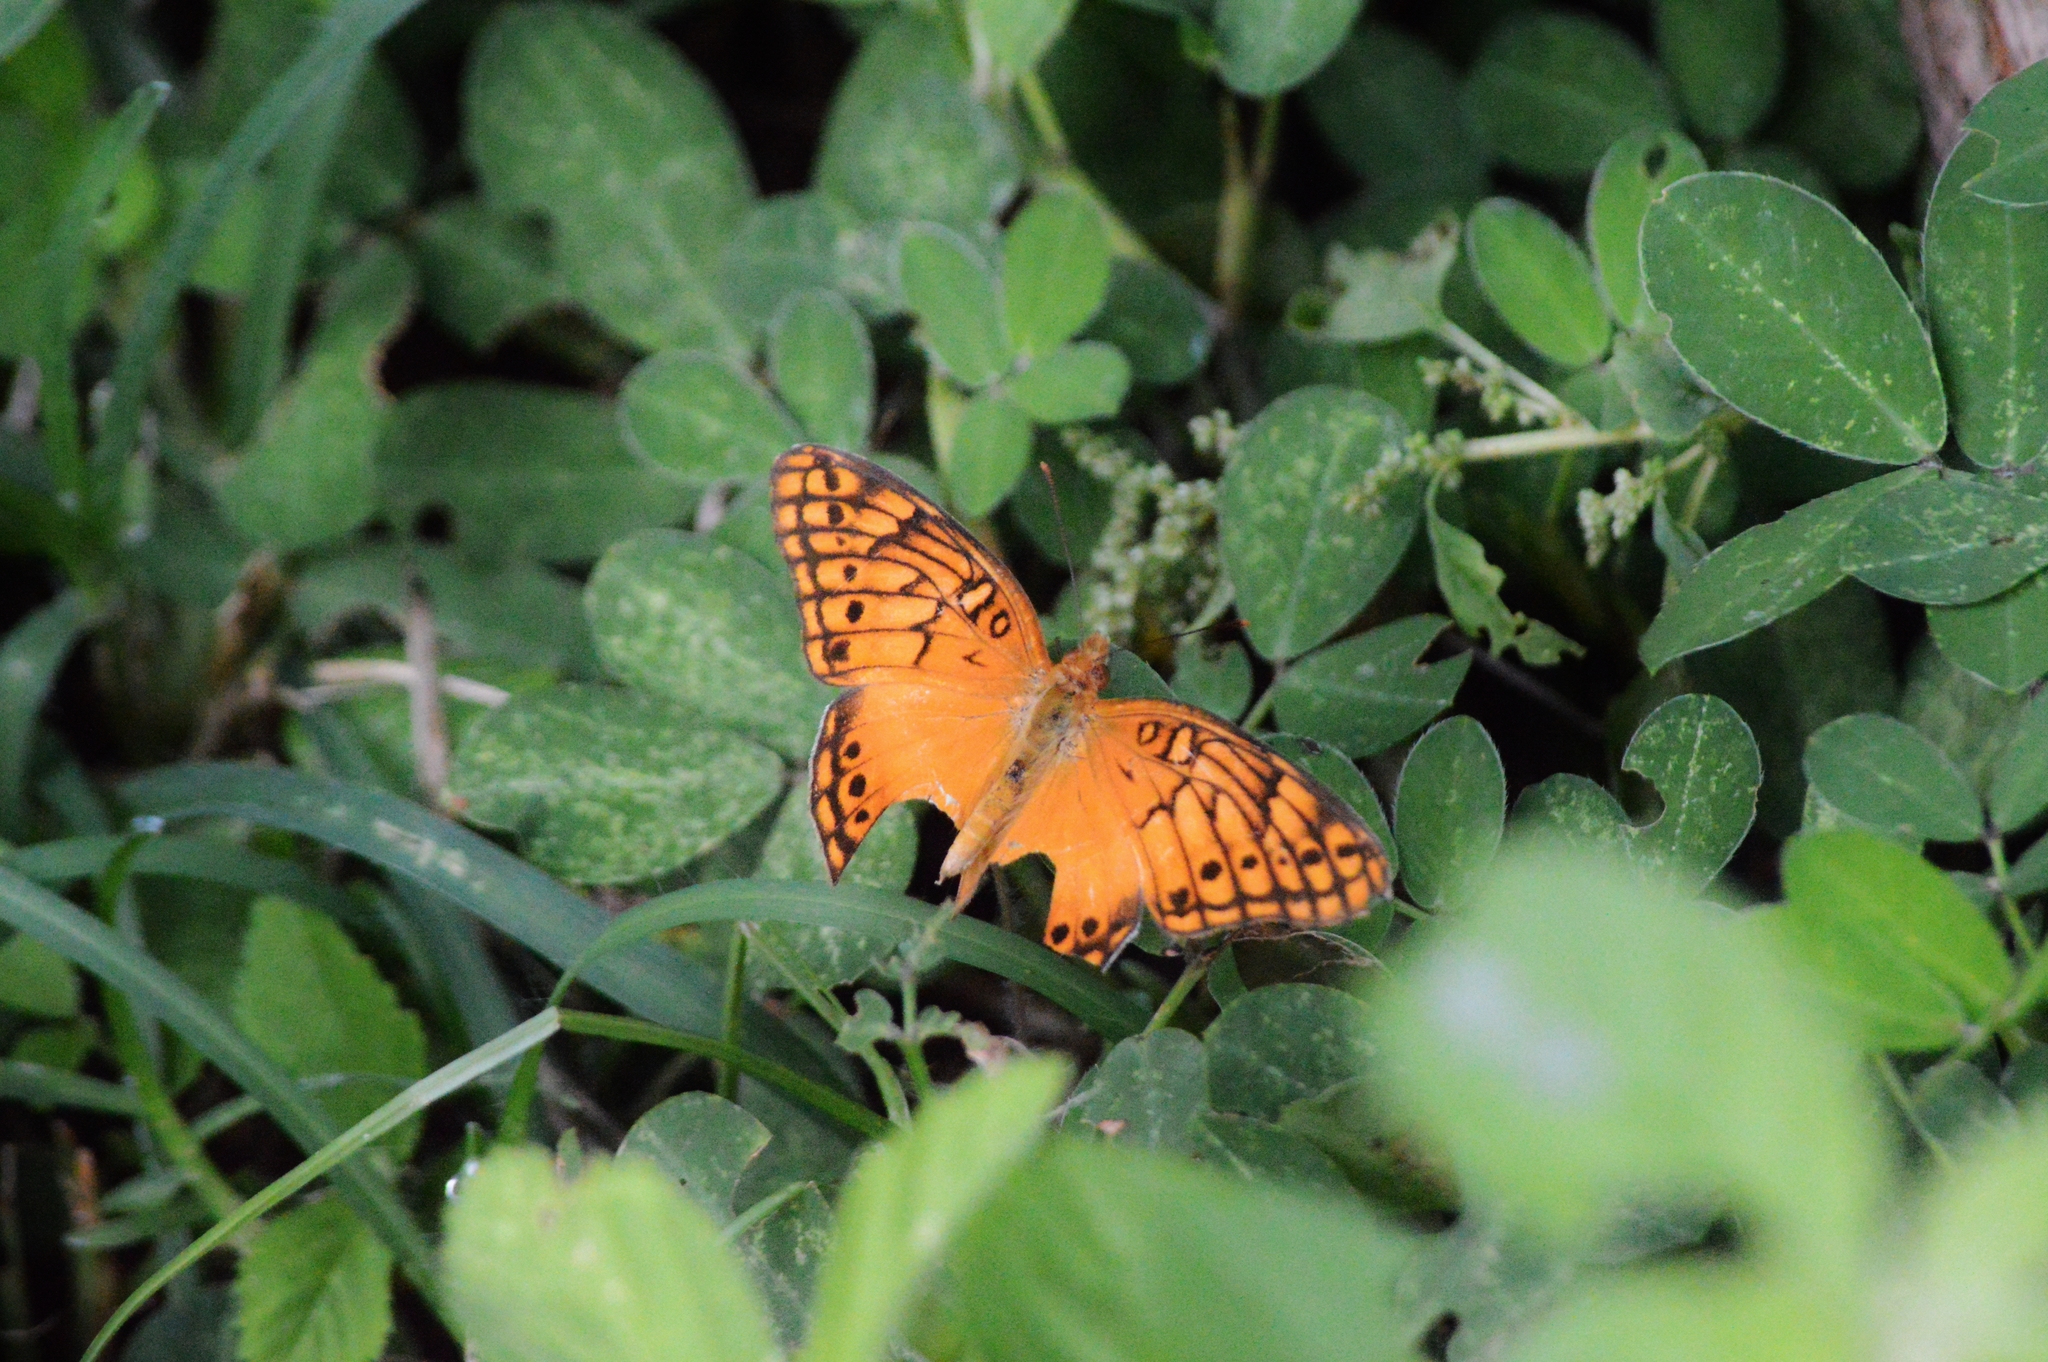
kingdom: Animalia
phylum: Arthropoda
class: Insecta
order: Lepidoptera
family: Nymphalidae
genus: Euptoieta
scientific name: Euptoieta hegesia
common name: Mexican fritillary
